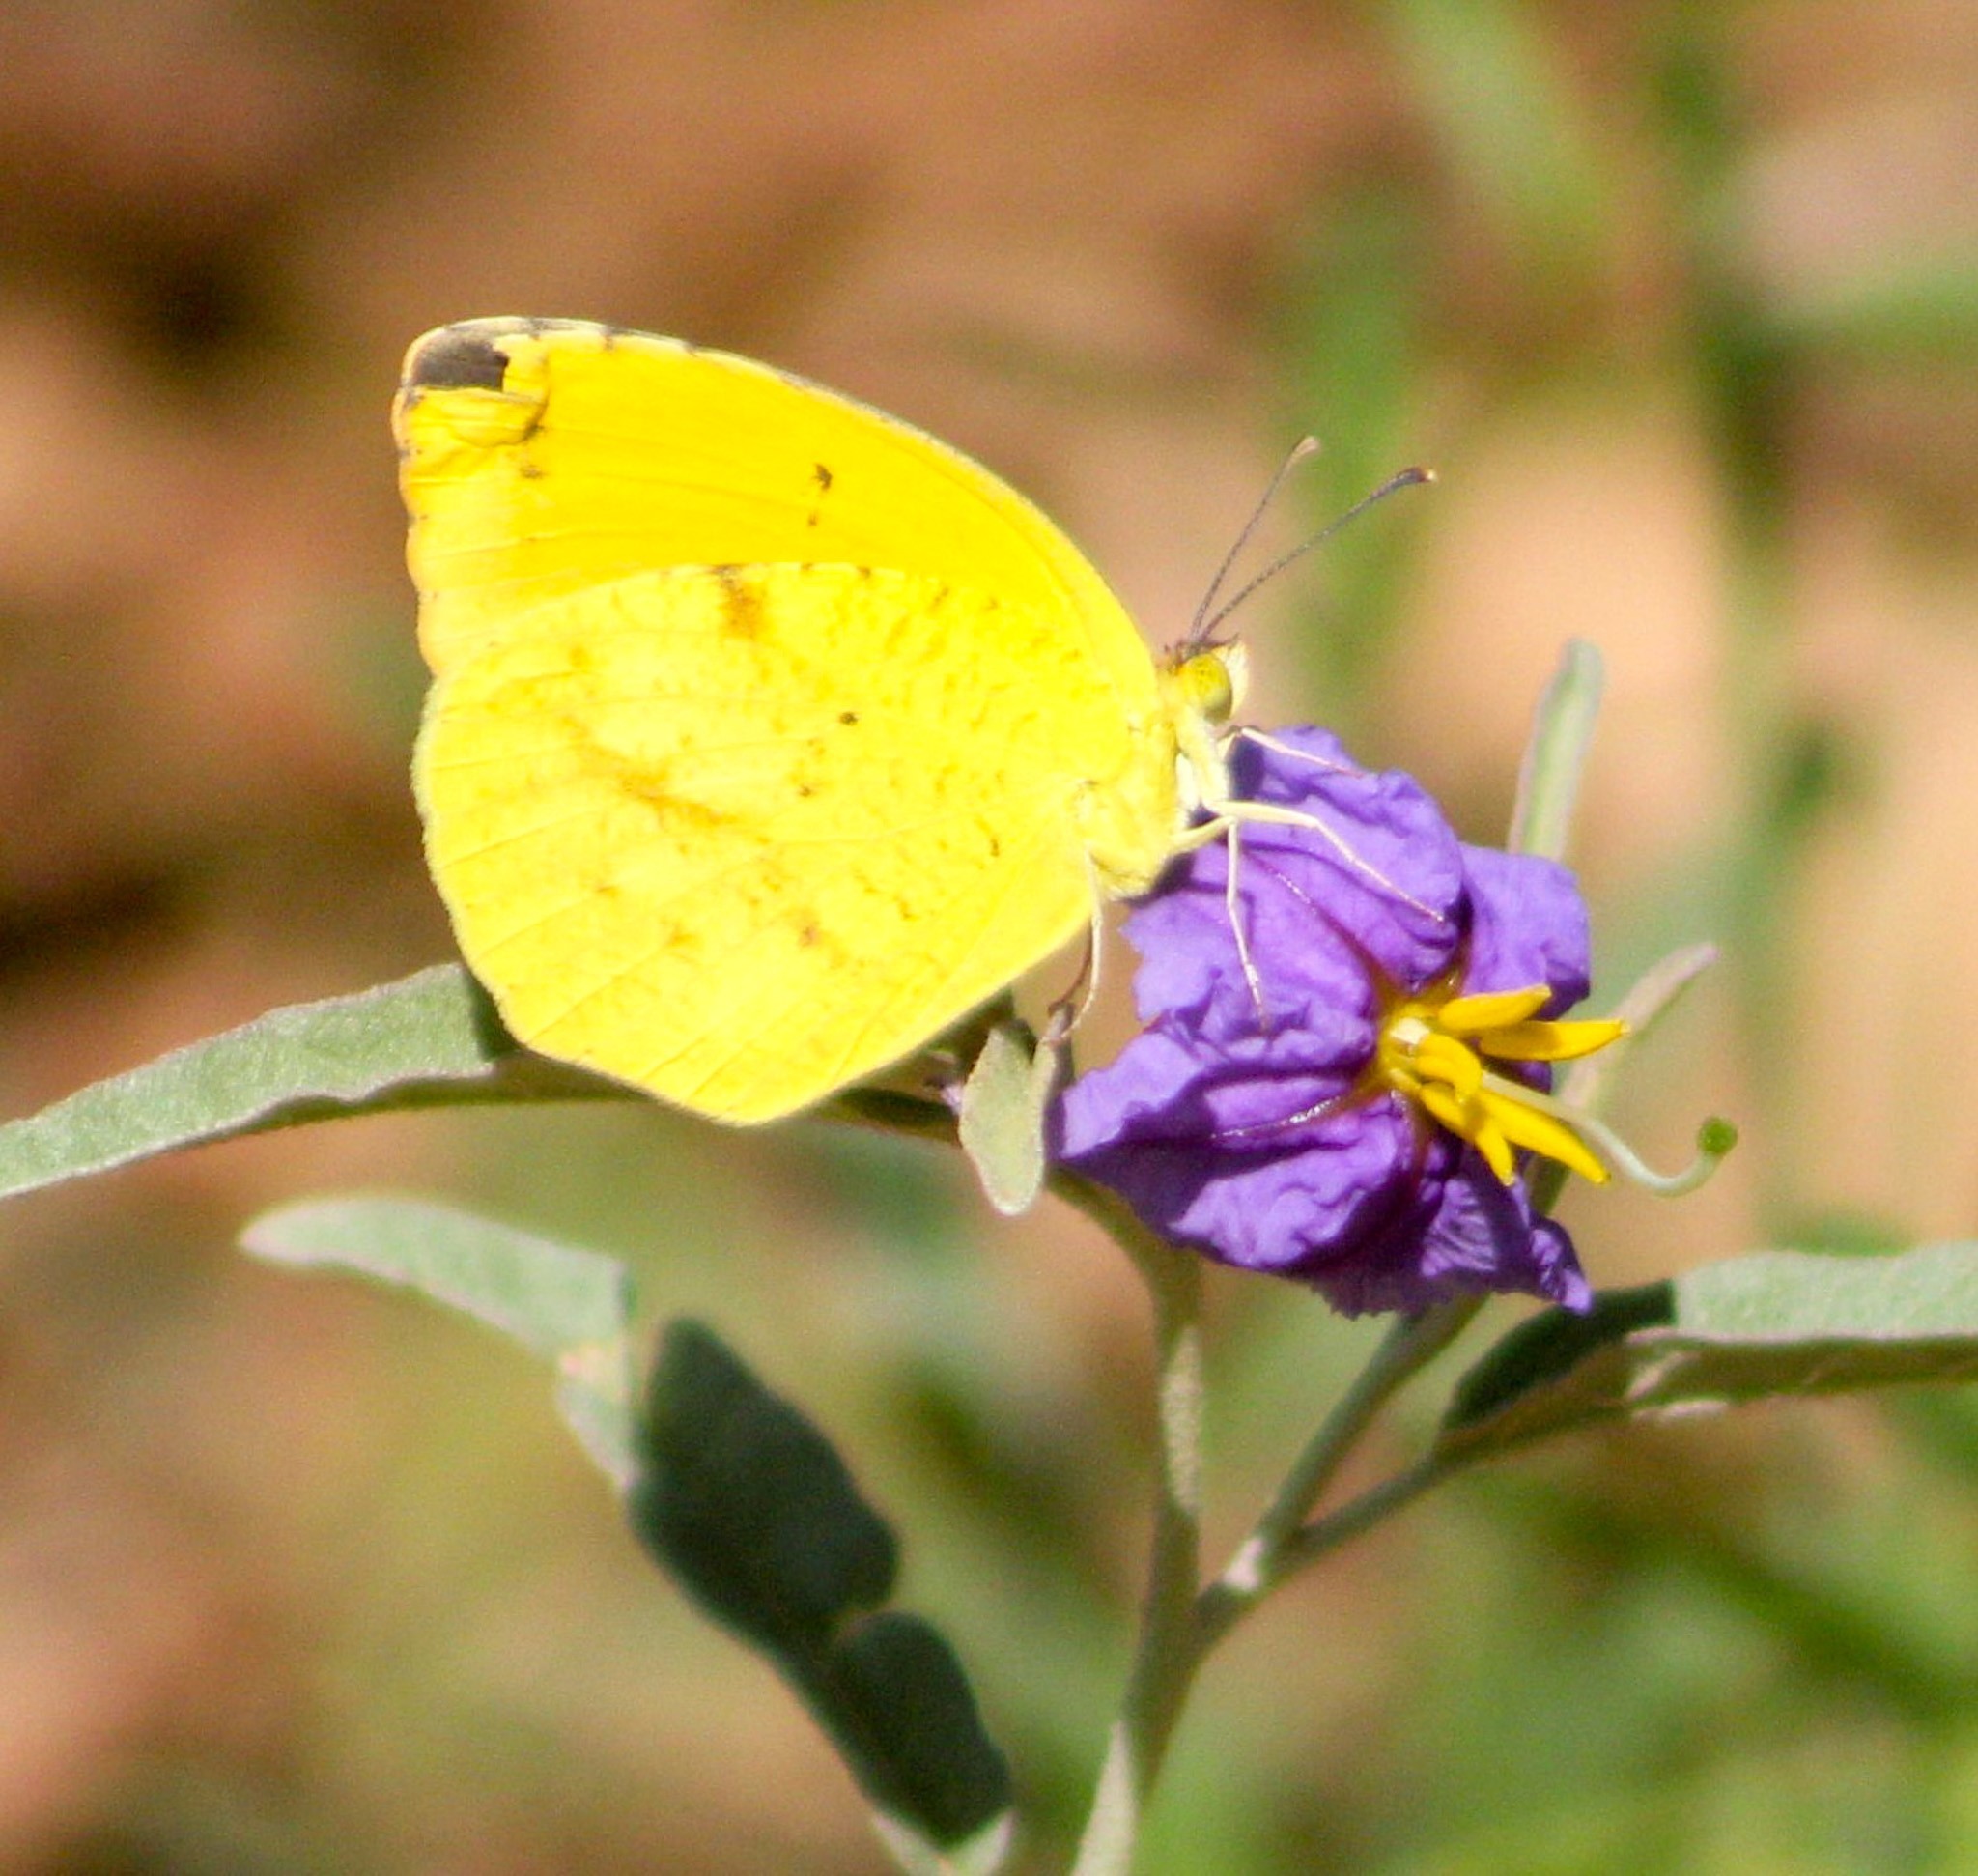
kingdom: Animalia
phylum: Arthropoda
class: Insecta
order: Lepidoptera
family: Pieridae
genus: Abaeis
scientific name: Abaeis nicippe
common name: Sleepy orange
